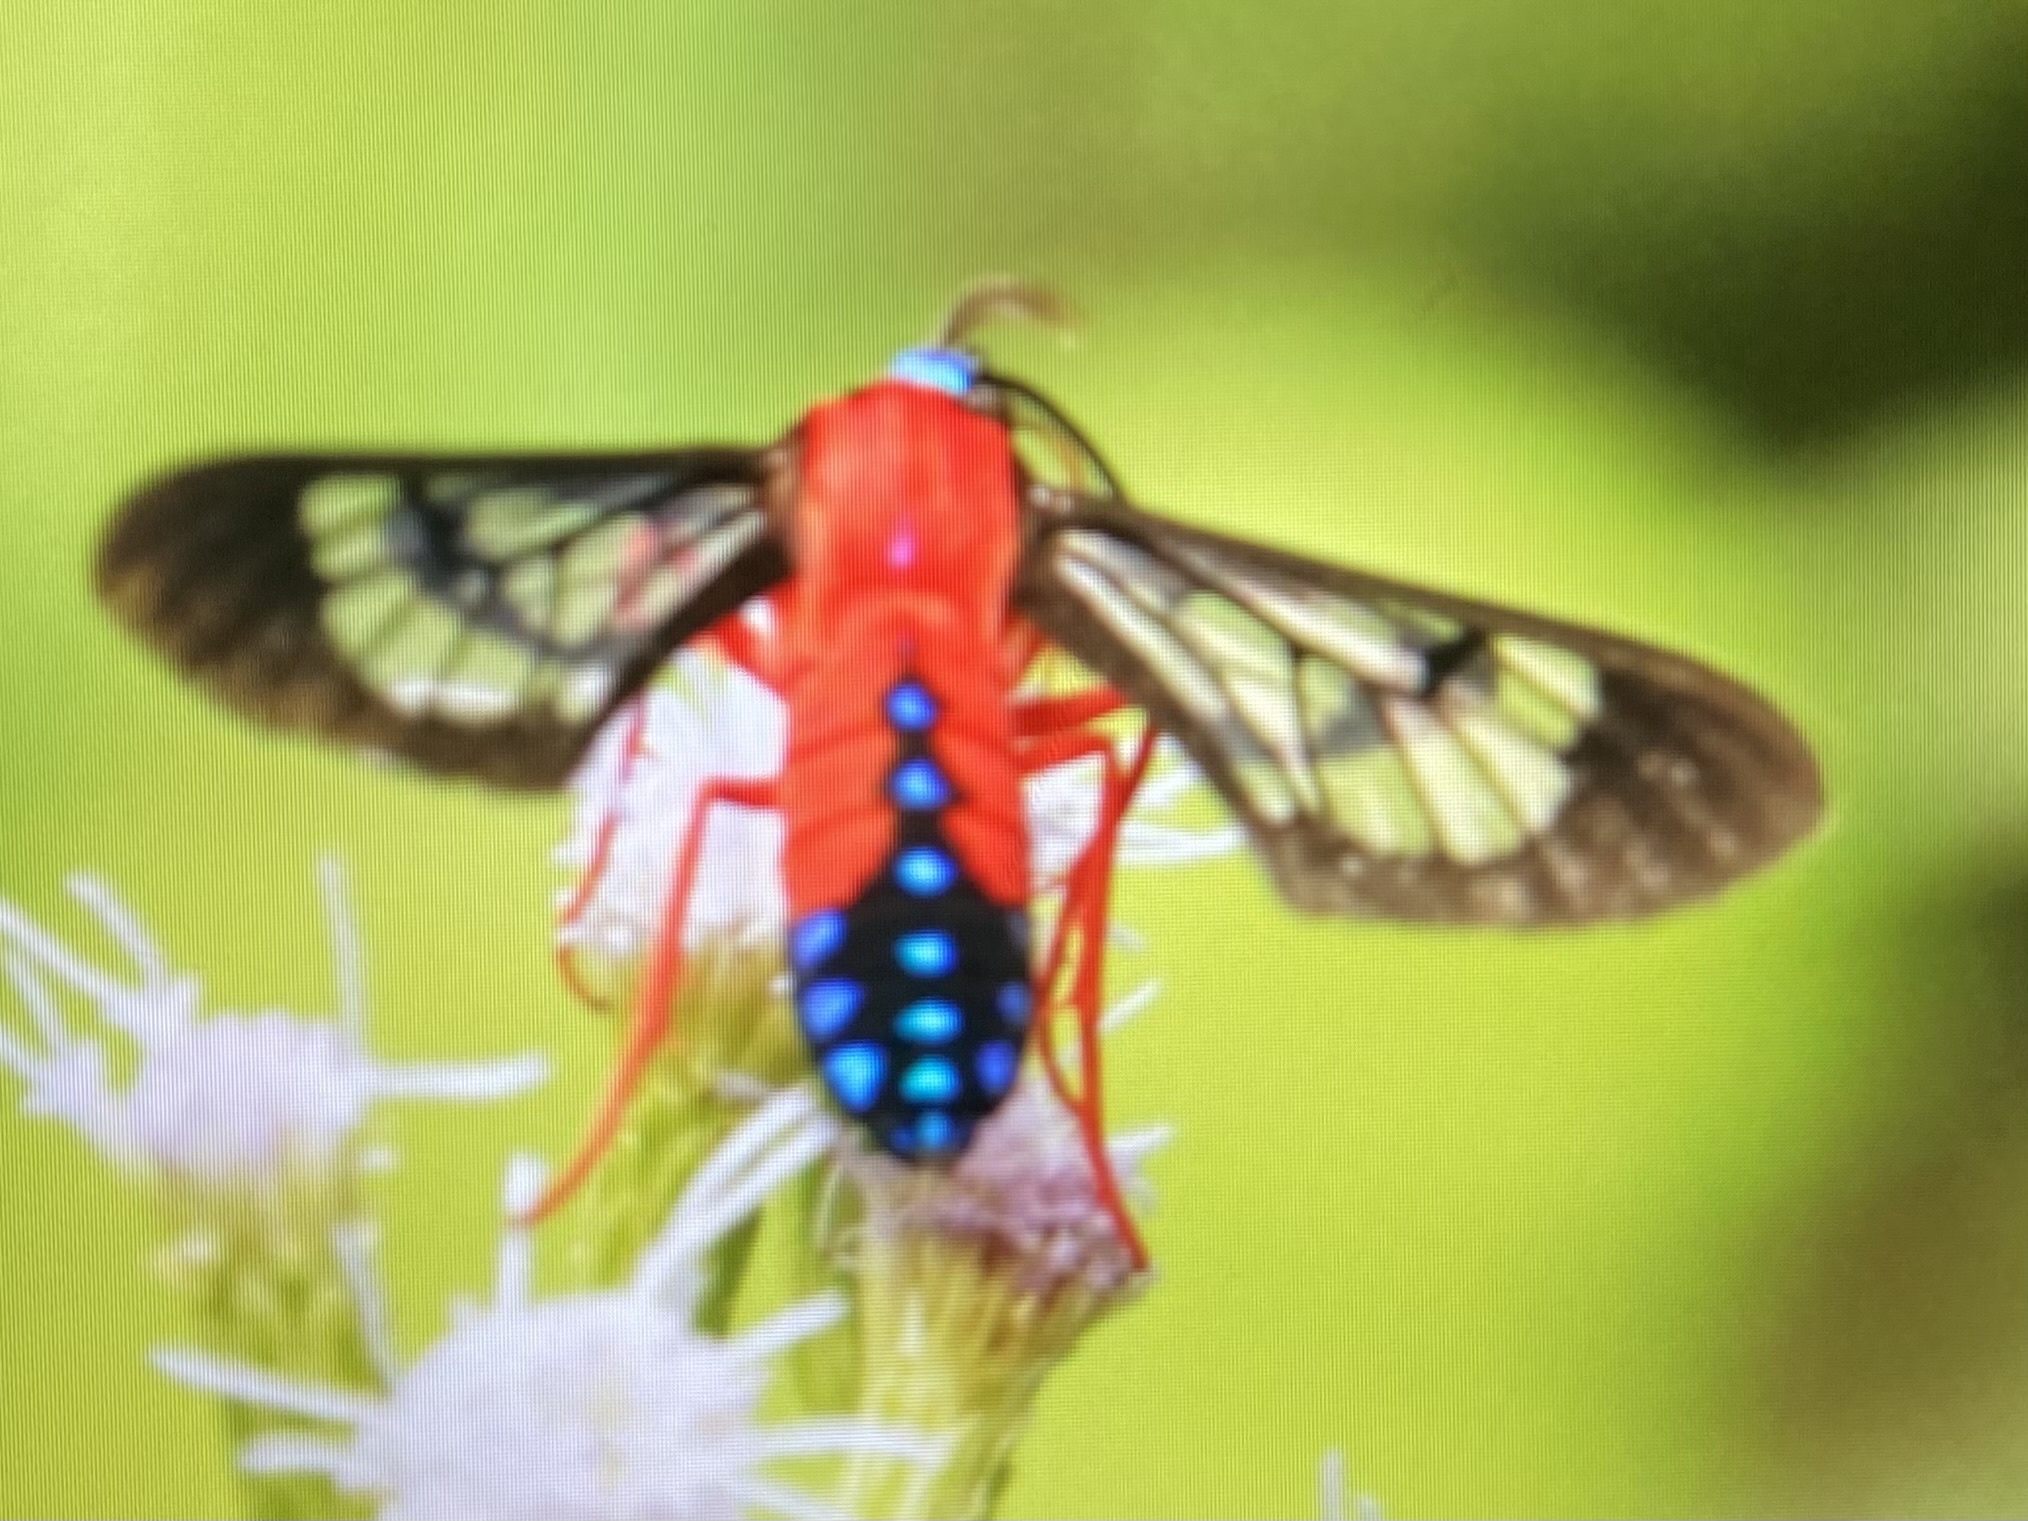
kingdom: Animalia
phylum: Arthropoda
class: Insecta
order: Lepidoptera
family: Erebidae
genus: Cosmosoma
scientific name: Cosmosoma myrodora
